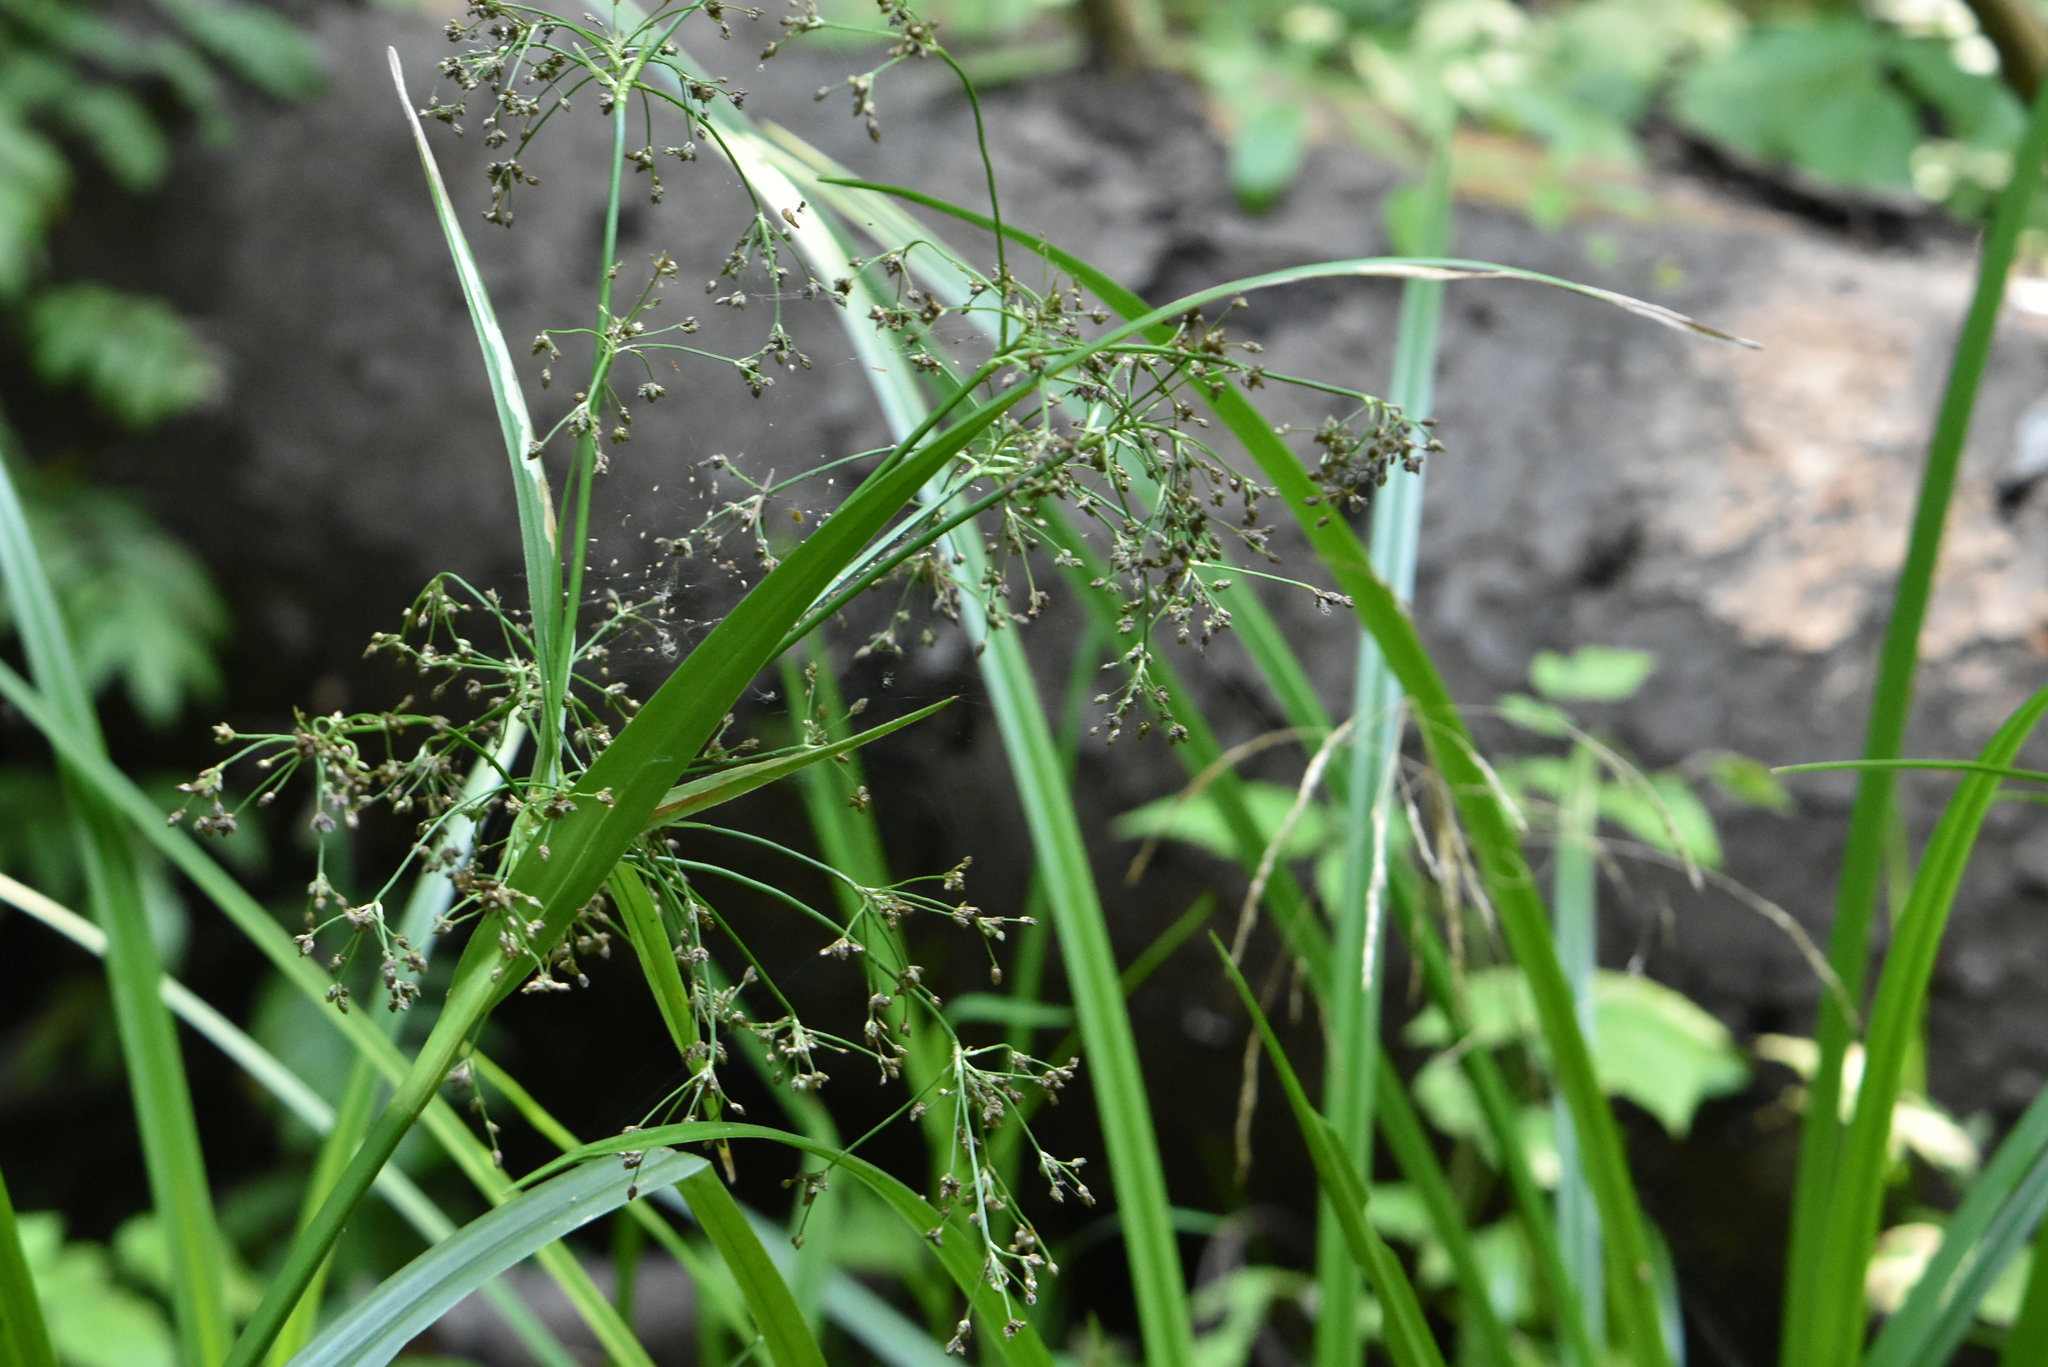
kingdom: Plantae
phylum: Tracheophyta
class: Liliopsida
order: Poales
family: Cyperaceae
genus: Scirpus
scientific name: Scirpus sylvaticus
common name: Wood club-rush
